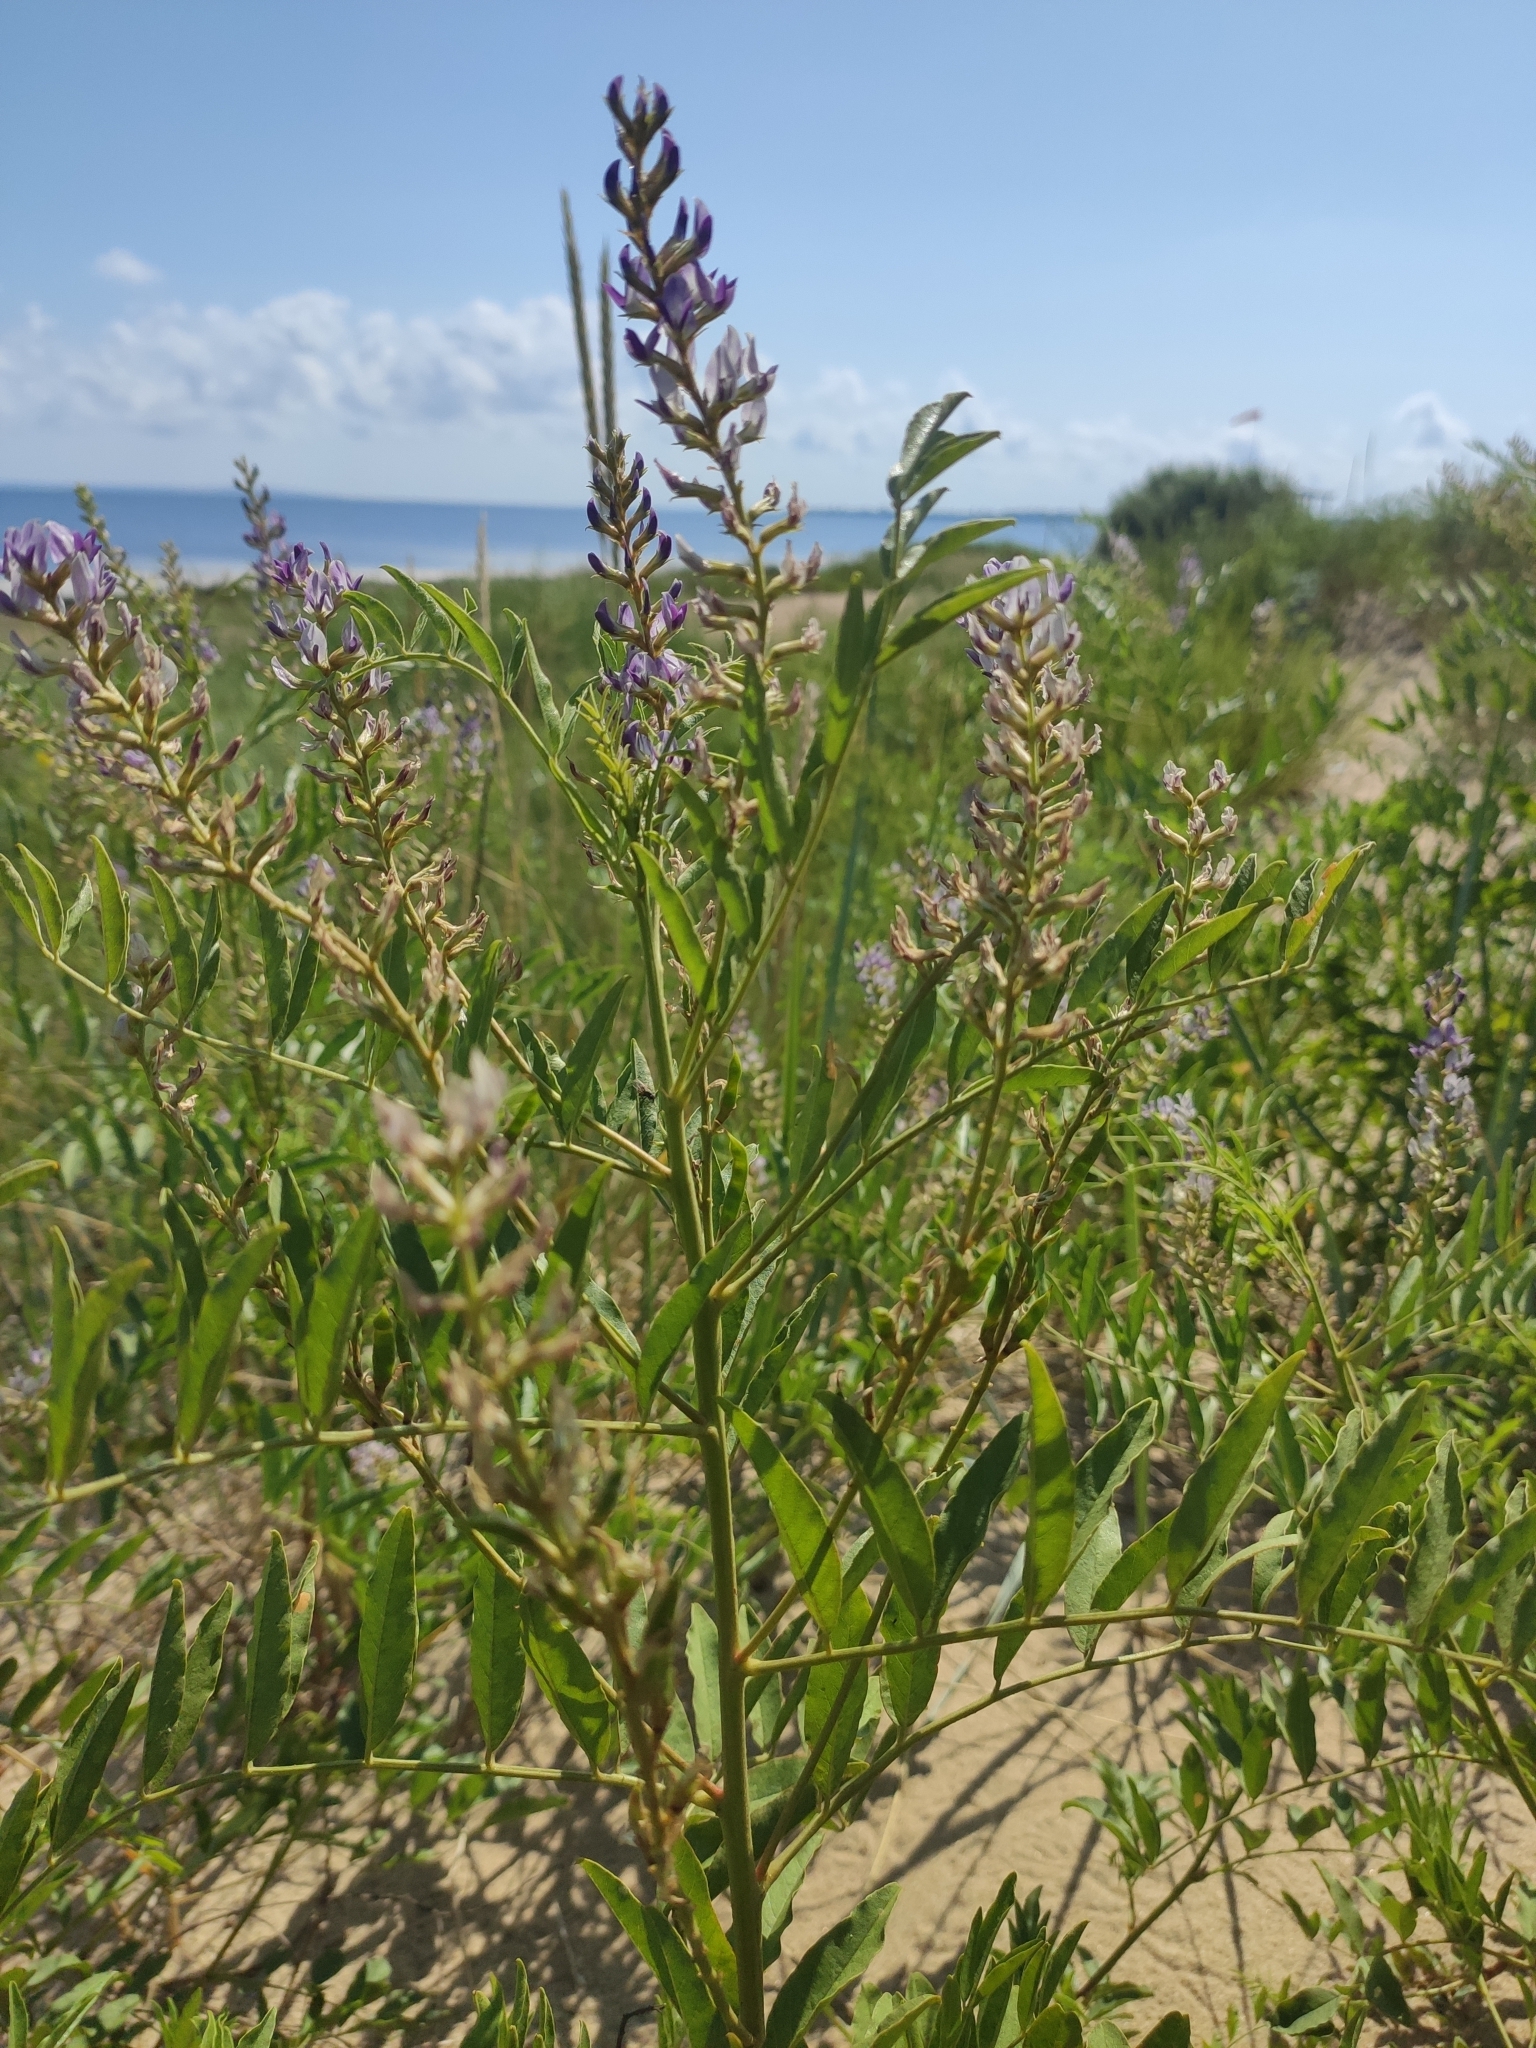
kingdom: Plantae
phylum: Tracheophyta
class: Magnoliopsida
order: Fabales
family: Fabaceae
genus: Glycyrrhiza
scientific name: Glycyrrhiza glabra
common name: Liquorice
